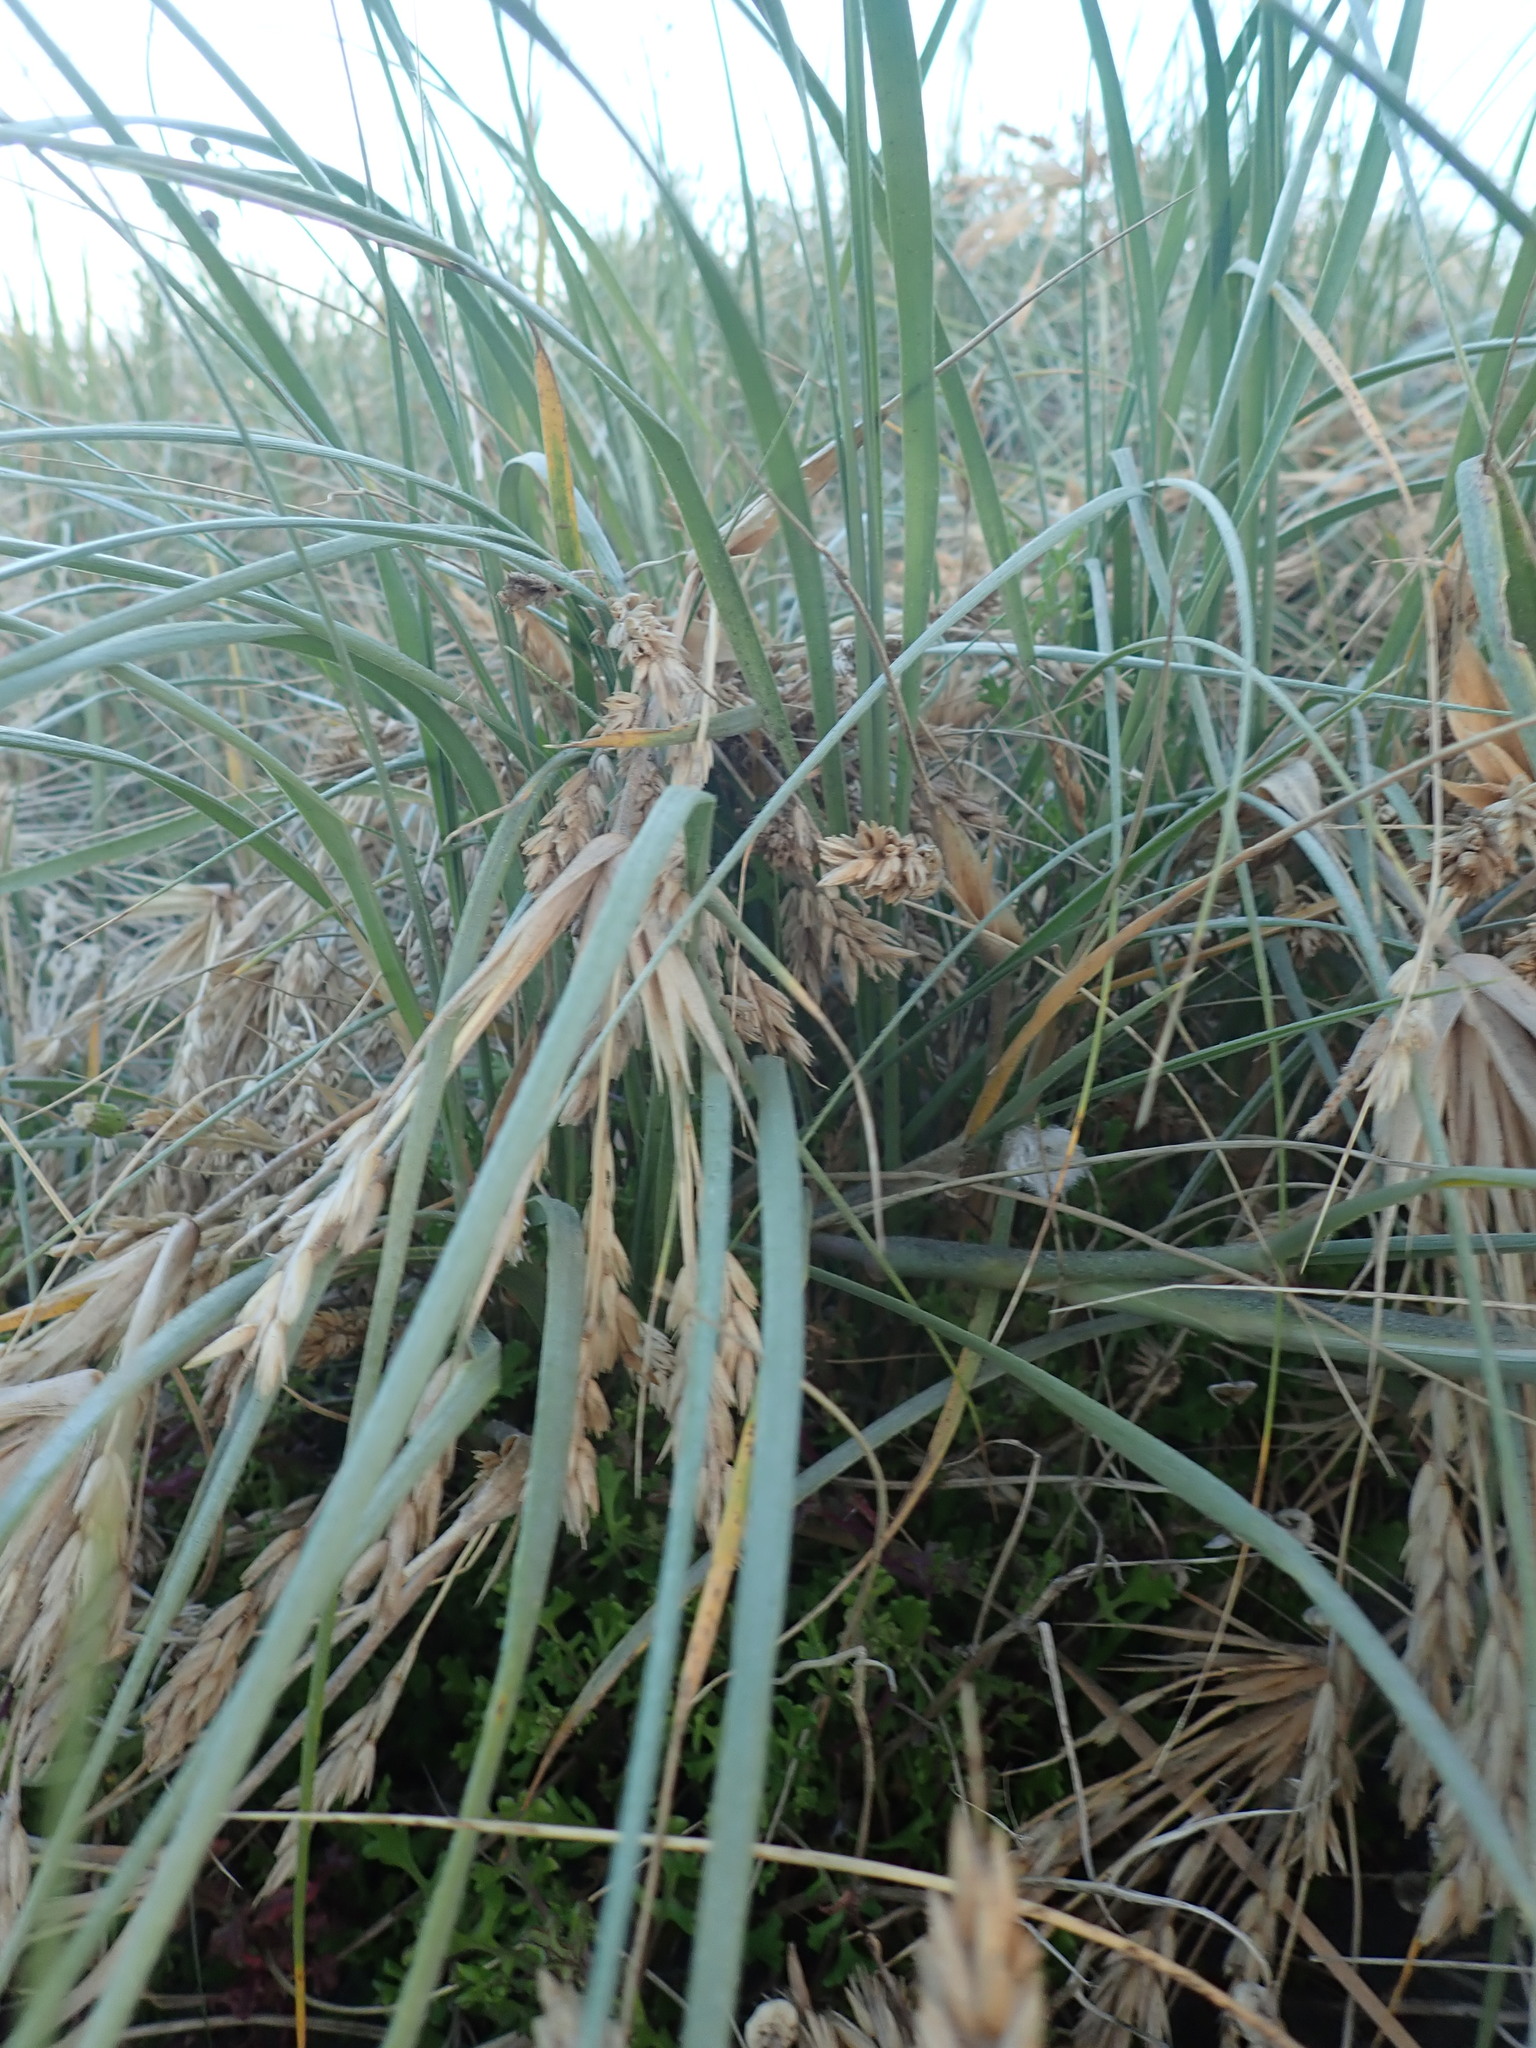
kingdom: Plantae
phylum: Tracheophyta
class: Liliopsida
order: Poales
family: Poaceae
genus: Spinifex
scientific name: Spinifex sericeus
